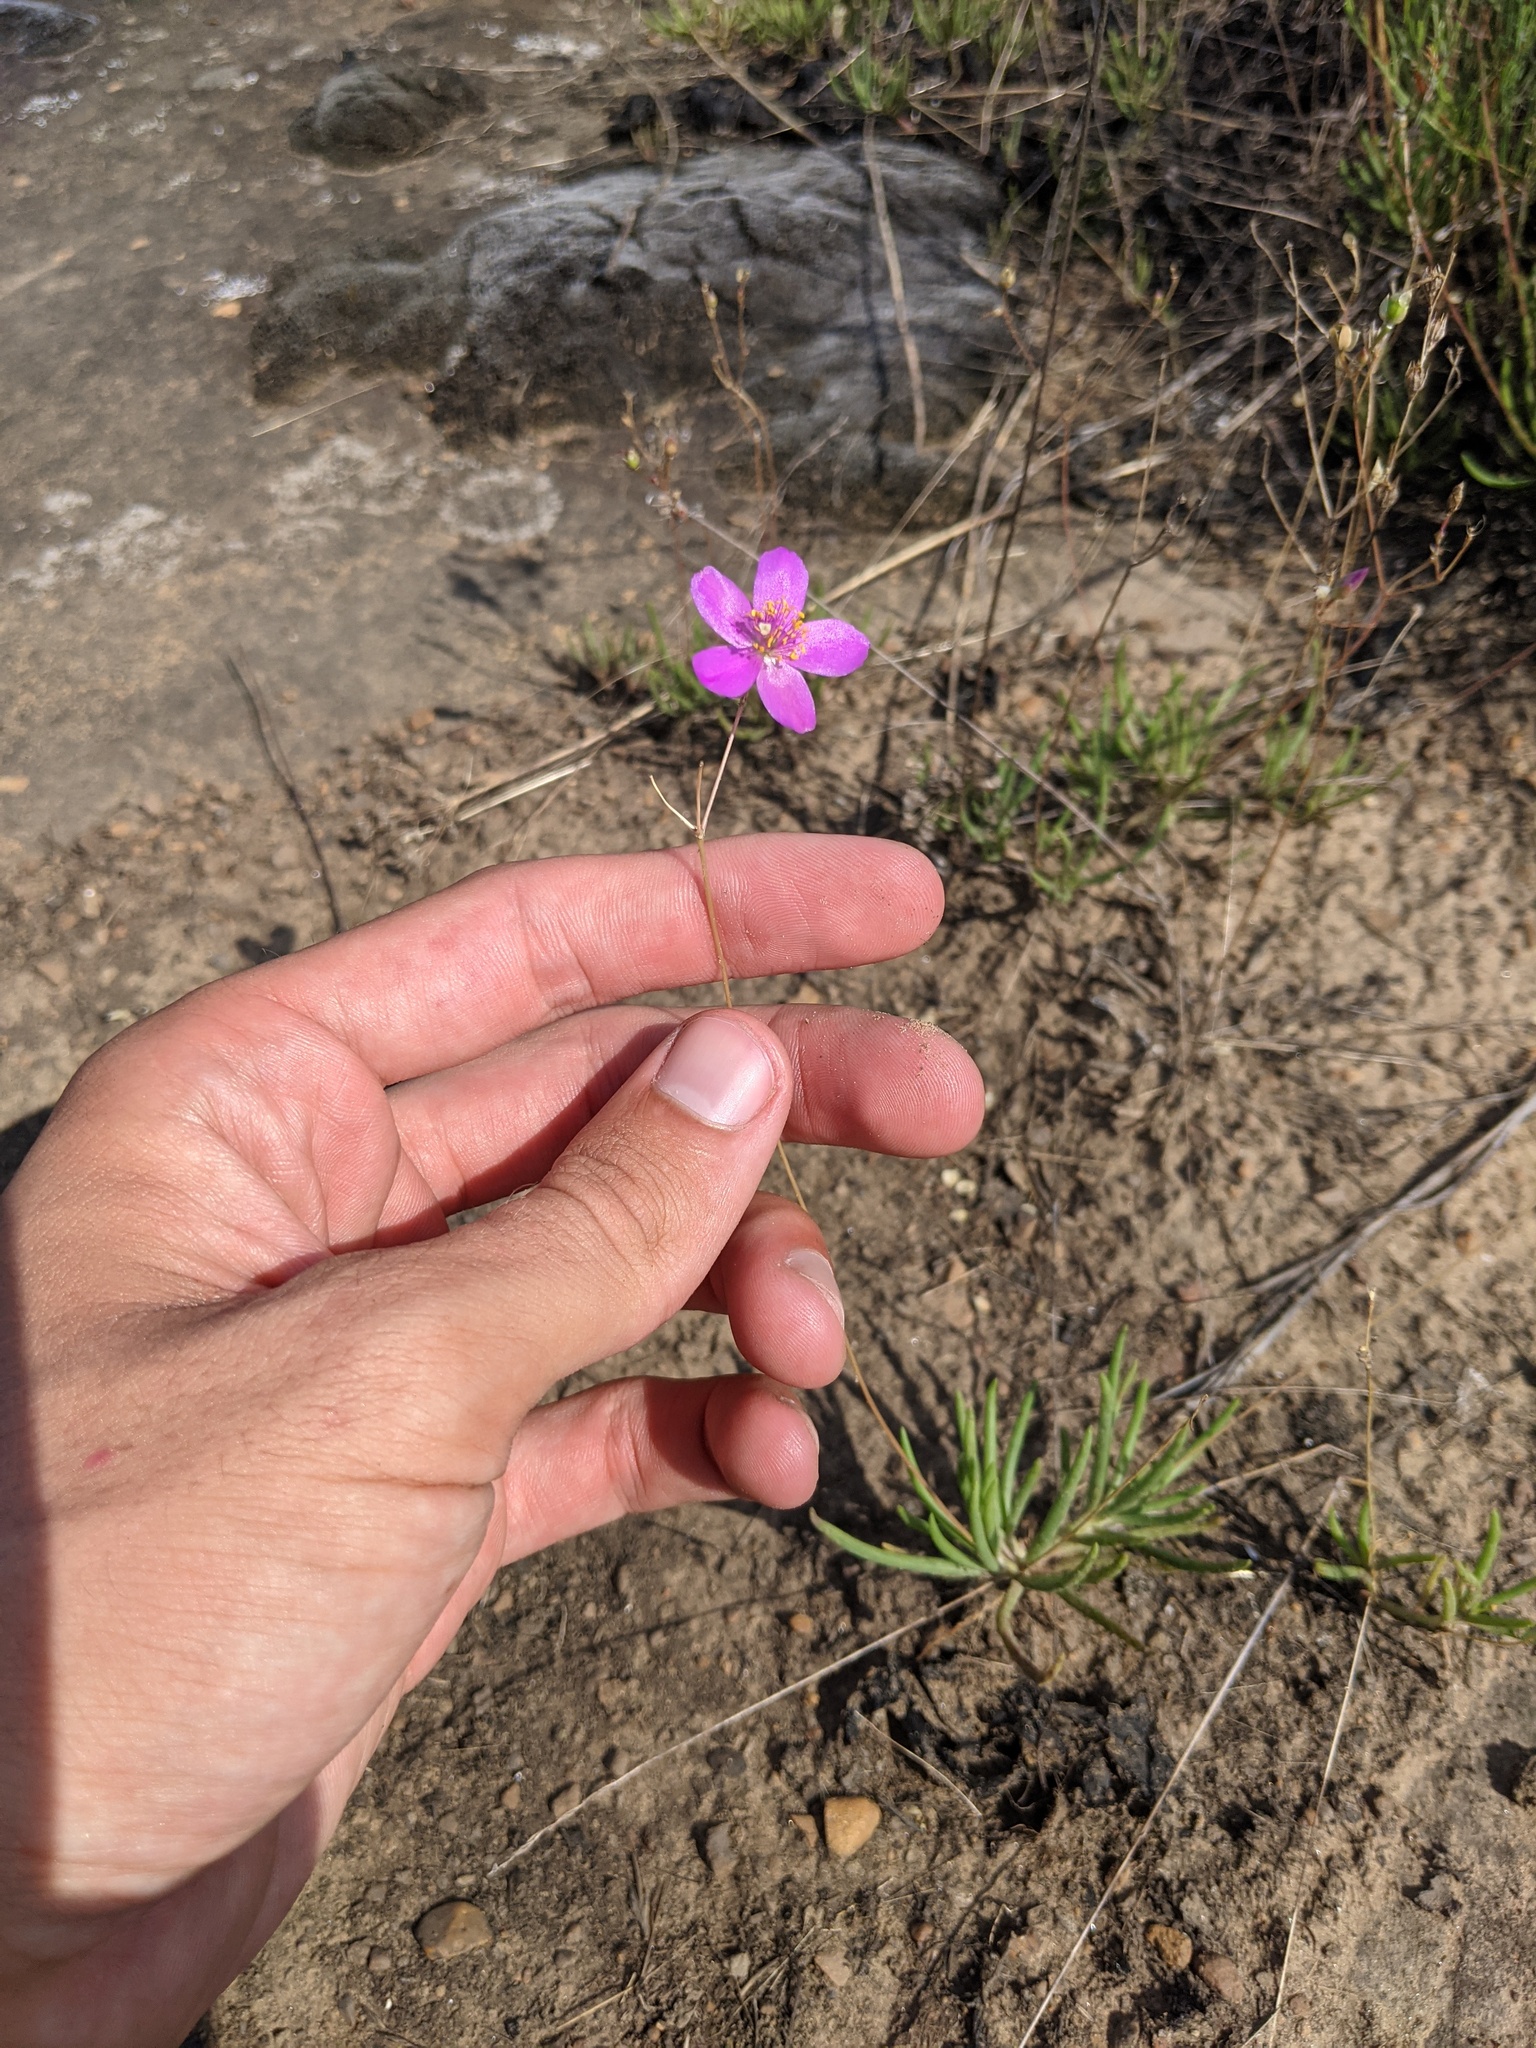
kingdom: Plantae
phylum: Tracheophyta
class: Magnoliopsida
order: Caryophyllales
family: Montiaceae
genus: Phemeranthus
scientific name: Phemeranthus calycinus
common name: Largeflower fameflower
